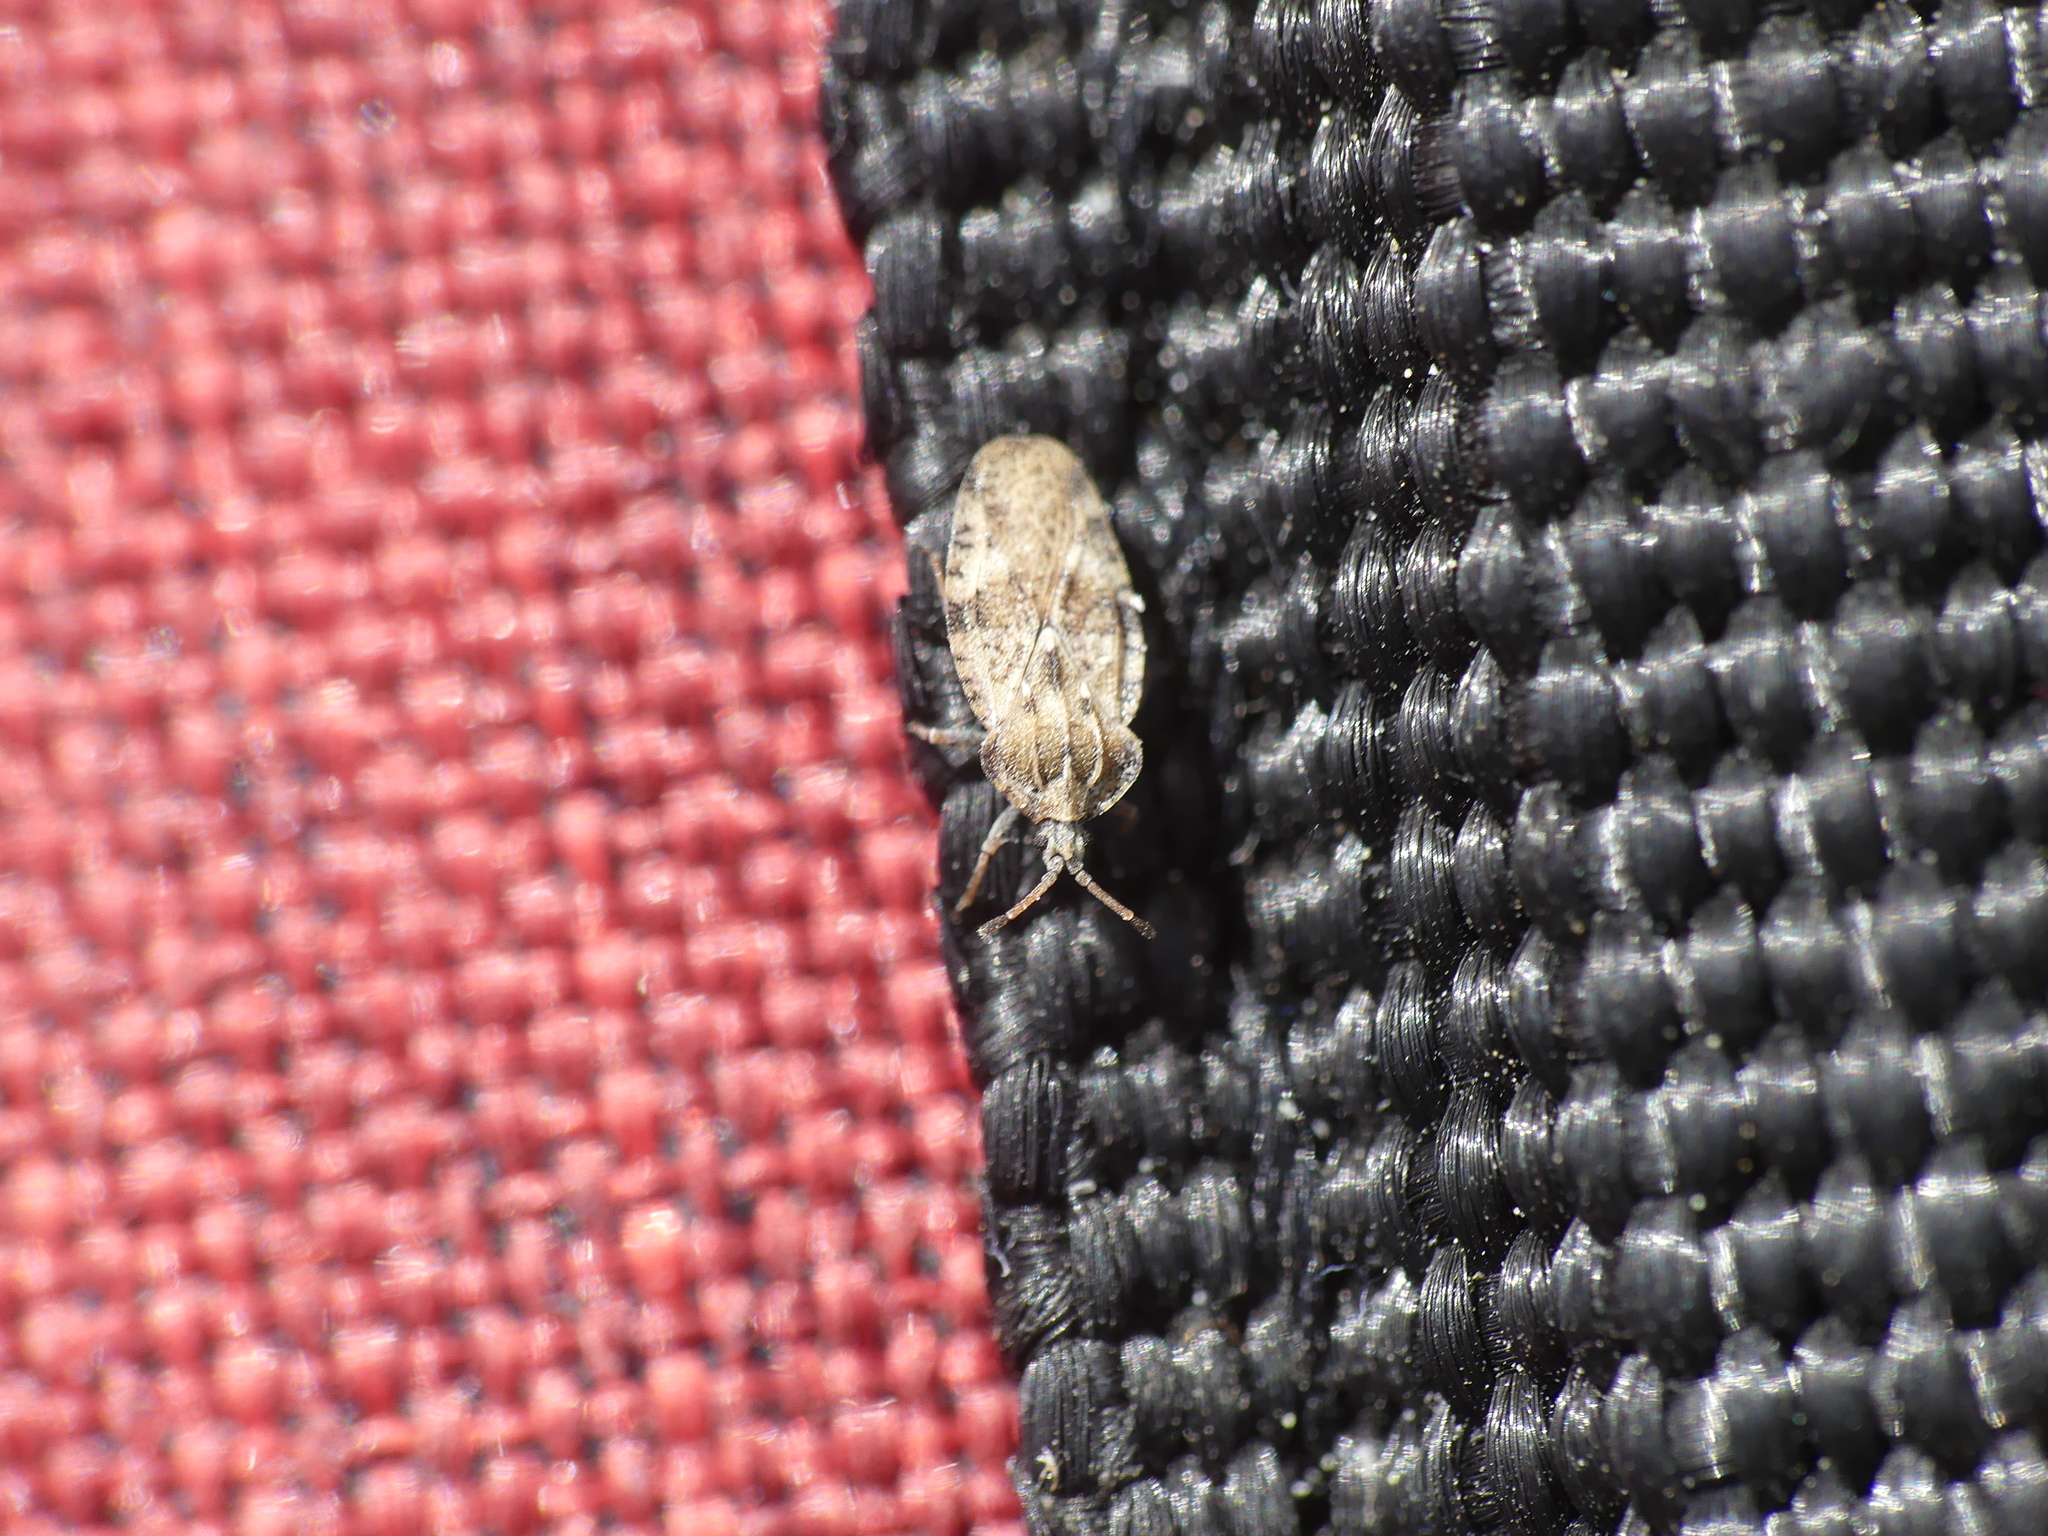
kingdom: Animalia
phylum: Arthropoda
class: Insecta
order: Hemiptera
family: Tingidae
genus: Tingis
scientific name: Tingis cardui
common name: Spear thistle lacebug
